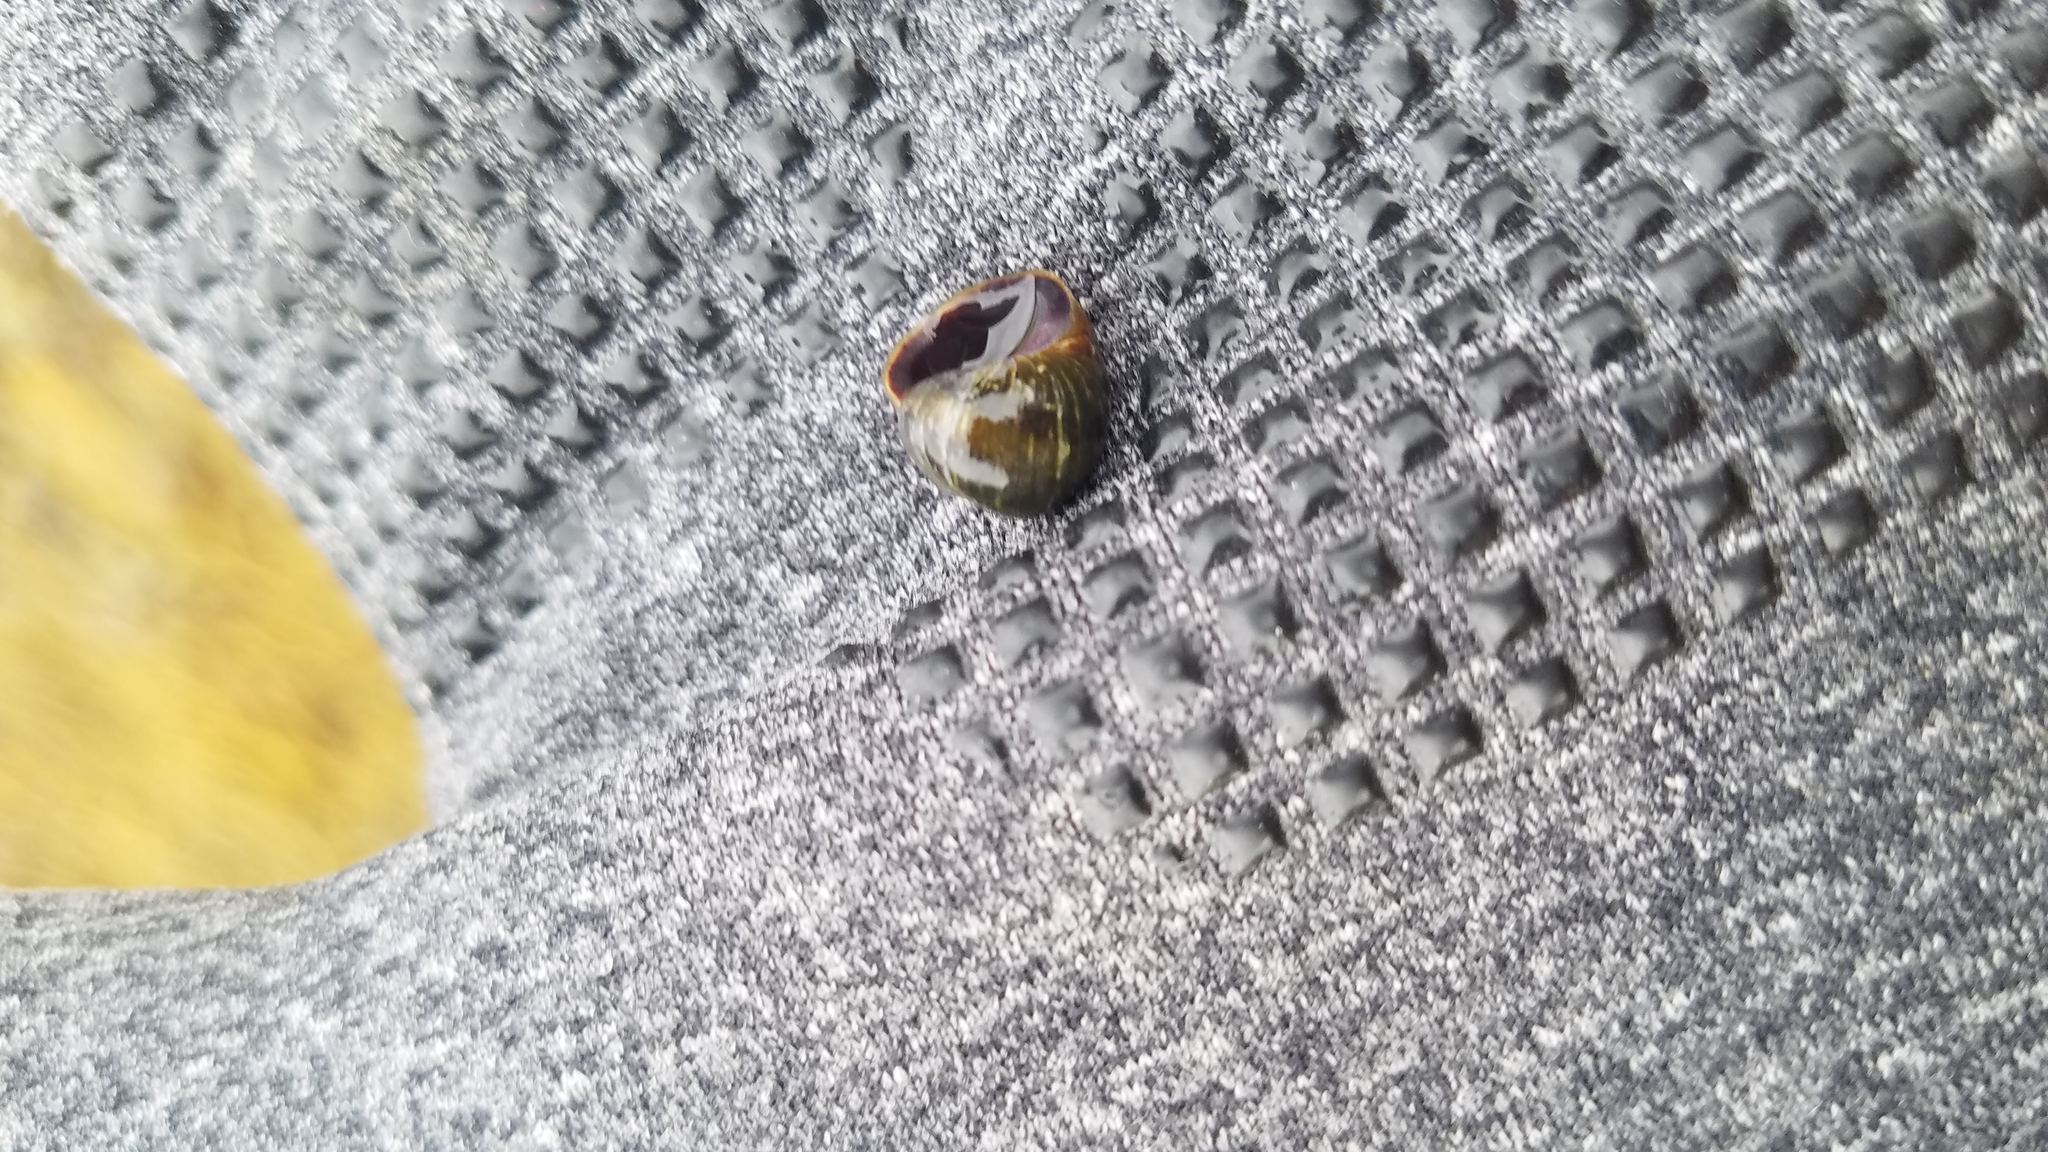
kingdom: Animalia
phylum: Mollusca
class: Gastropoda
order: Littorinimorpha
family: Littorinidae
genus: Littorina
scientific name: Littorina obtusata
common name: Flat periwinkle
